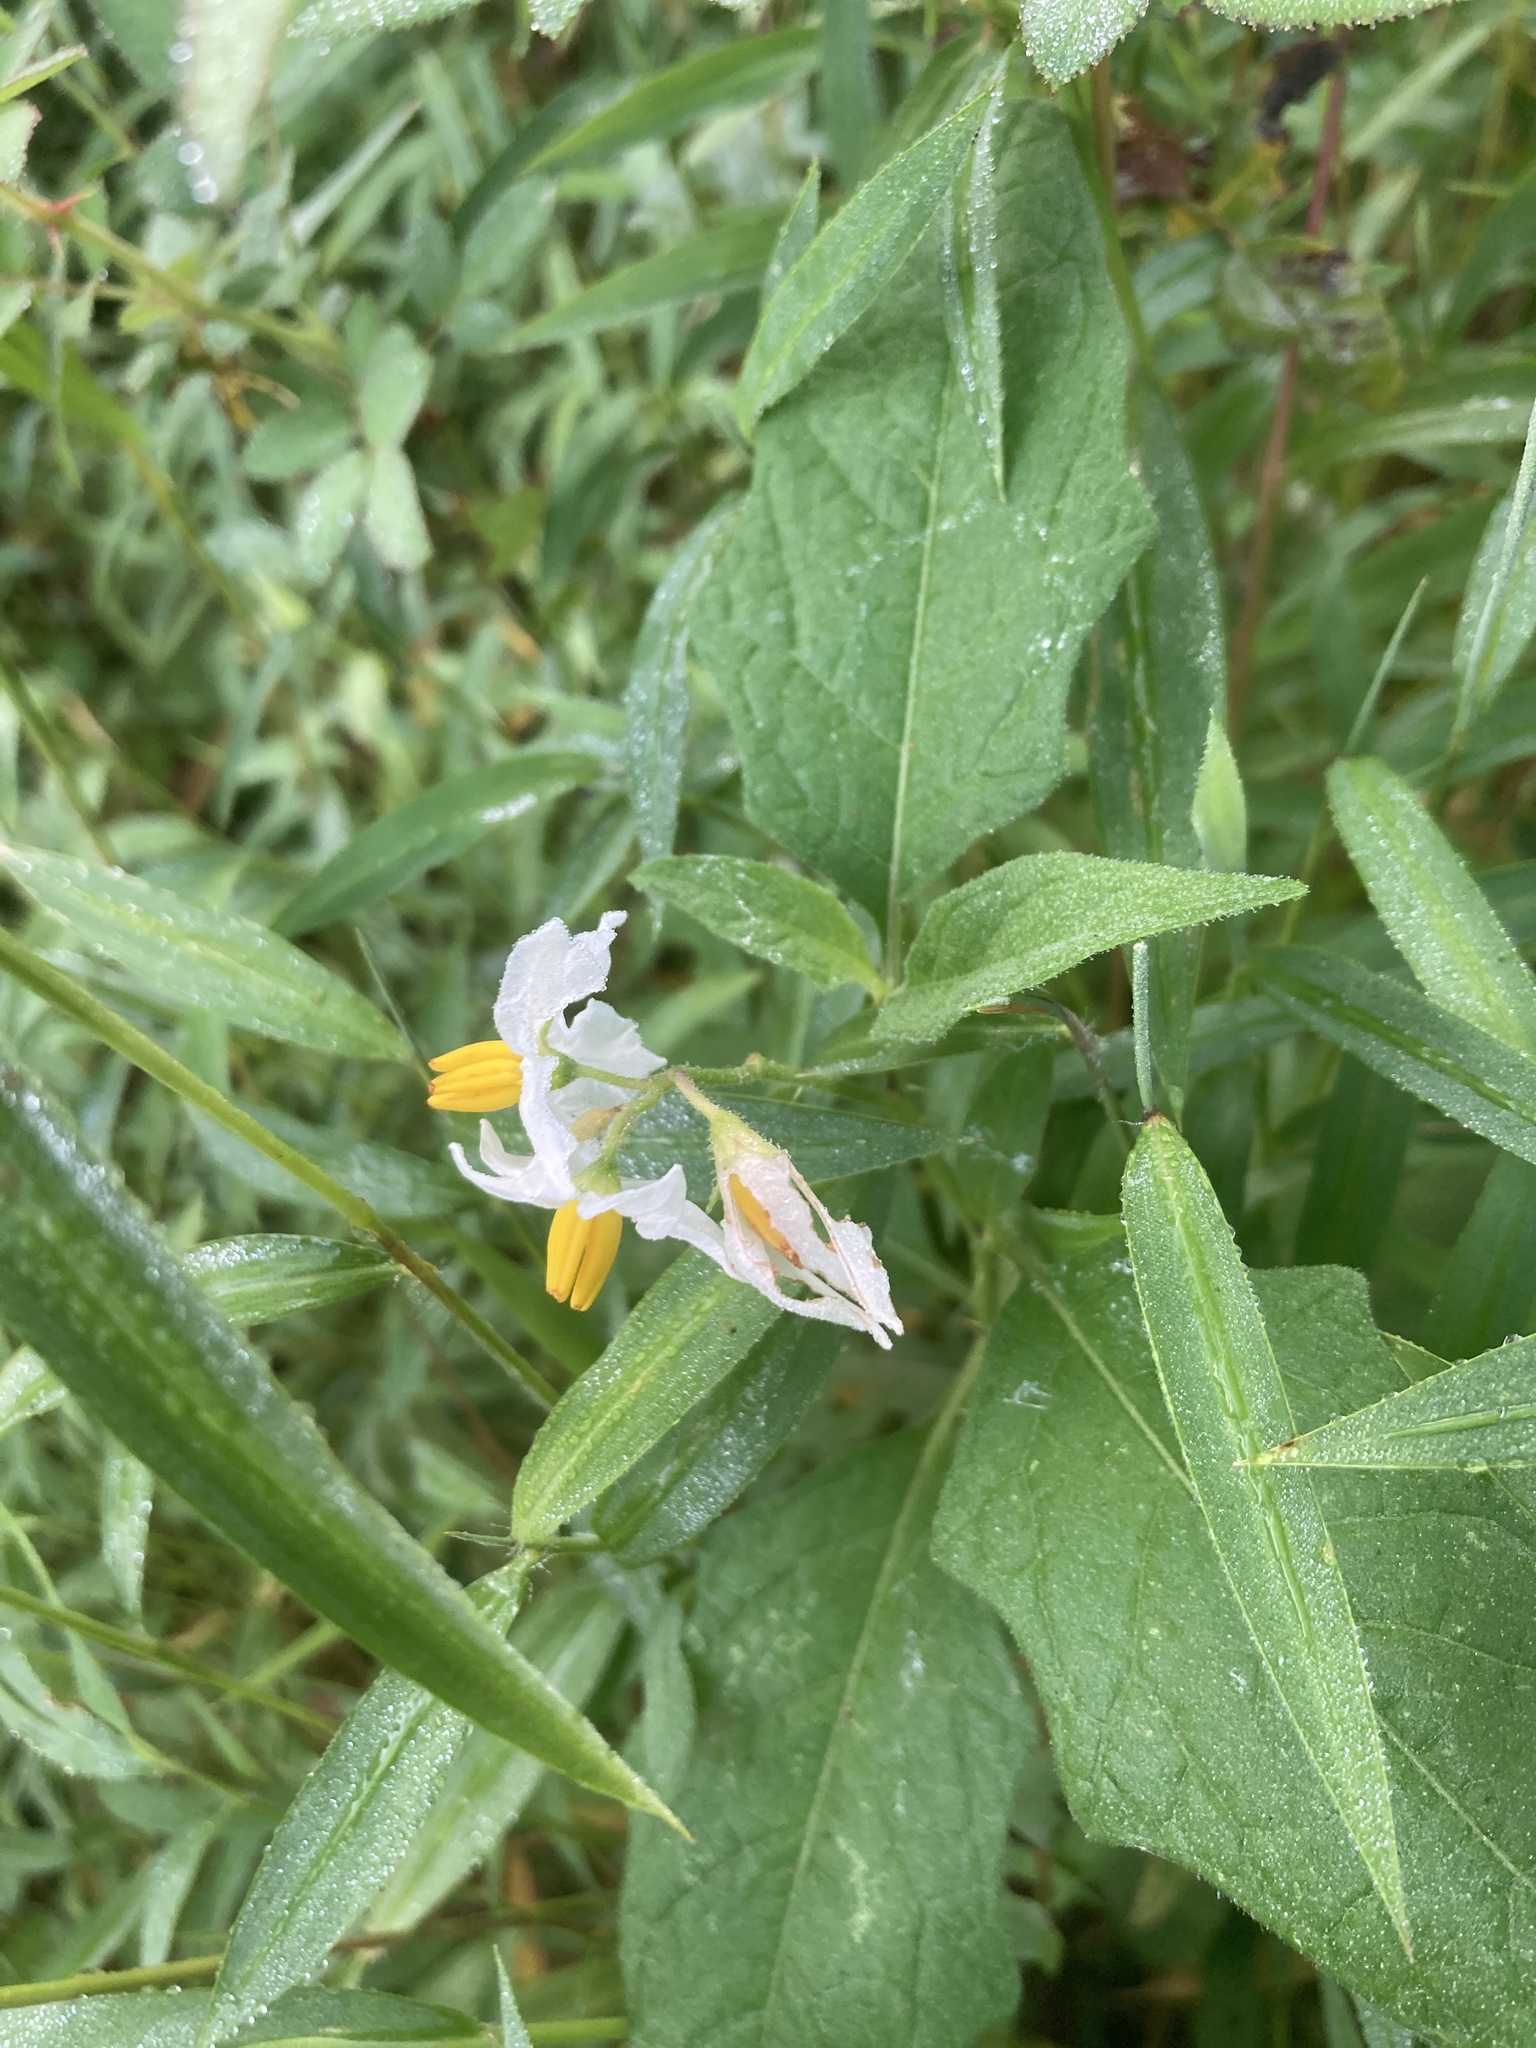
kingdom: Plantae
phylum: Tracheophyta
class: Magnoliopsida
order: Solanales
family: Solanaceae
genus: Solanum
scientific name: Solanum carolinense
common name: Horse-nettle
